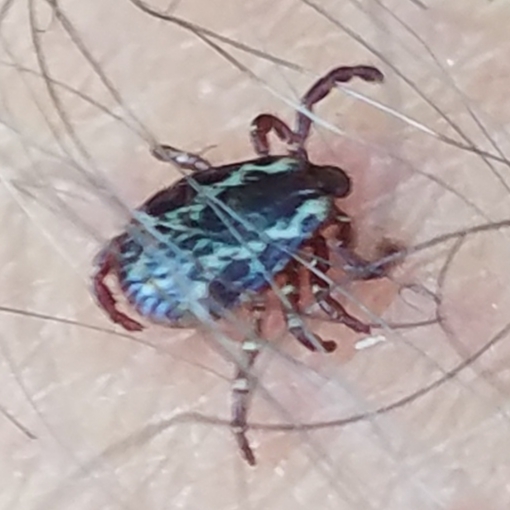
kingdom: Animalia
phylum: Arthropoda
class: Arachnida
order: Ixodida
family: Ixodidae
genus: Dermacentor
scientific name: Dermacentor variabilis
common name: American dog tick
